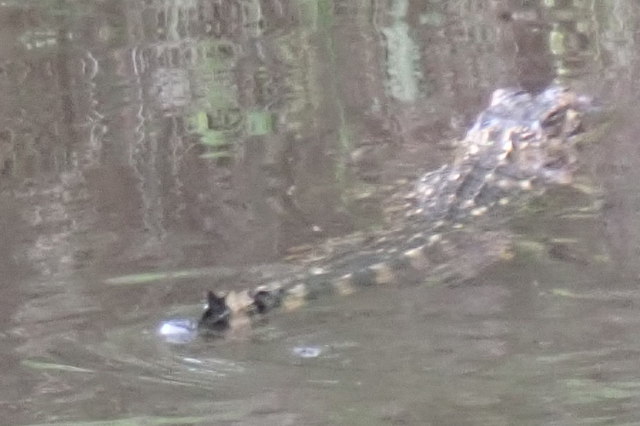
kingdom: Animalia
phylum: Chordata
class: Crocodylia
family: Alligatoridae
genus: Alligator
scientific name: Alligator mississippiensis
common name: American alligator
